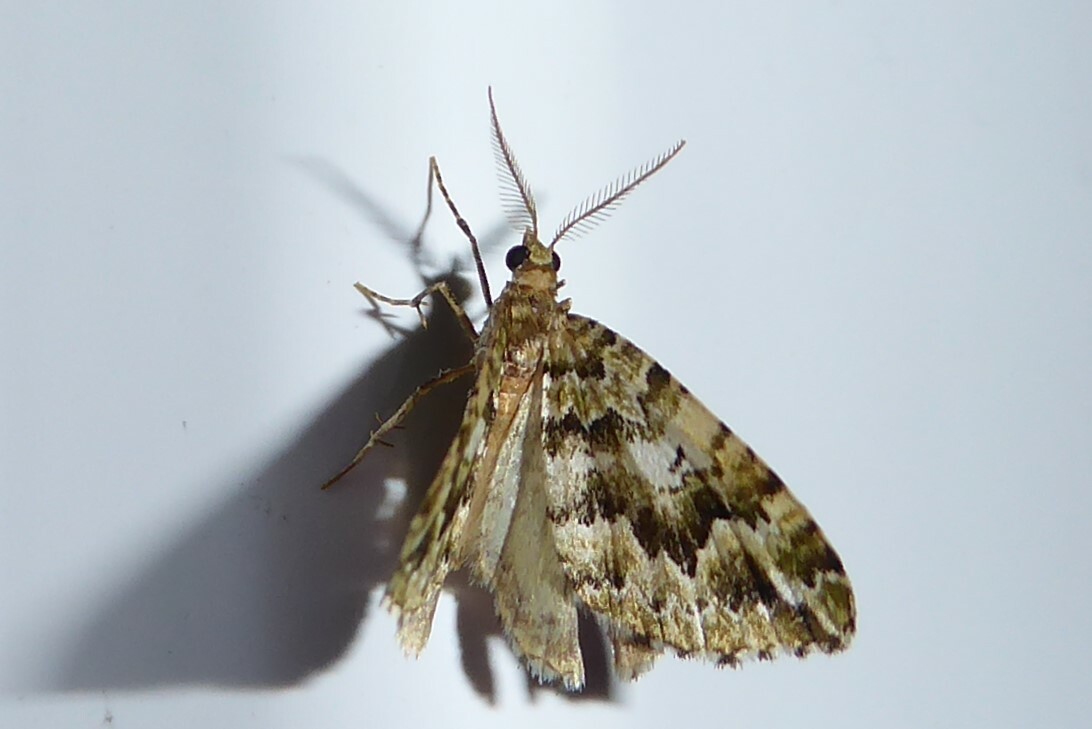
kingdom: Animalia
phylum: Arthropoda
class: Insecta
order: Lepidoptera
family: Geometridae
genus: Asaphodes
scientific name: Asaphodes beata
